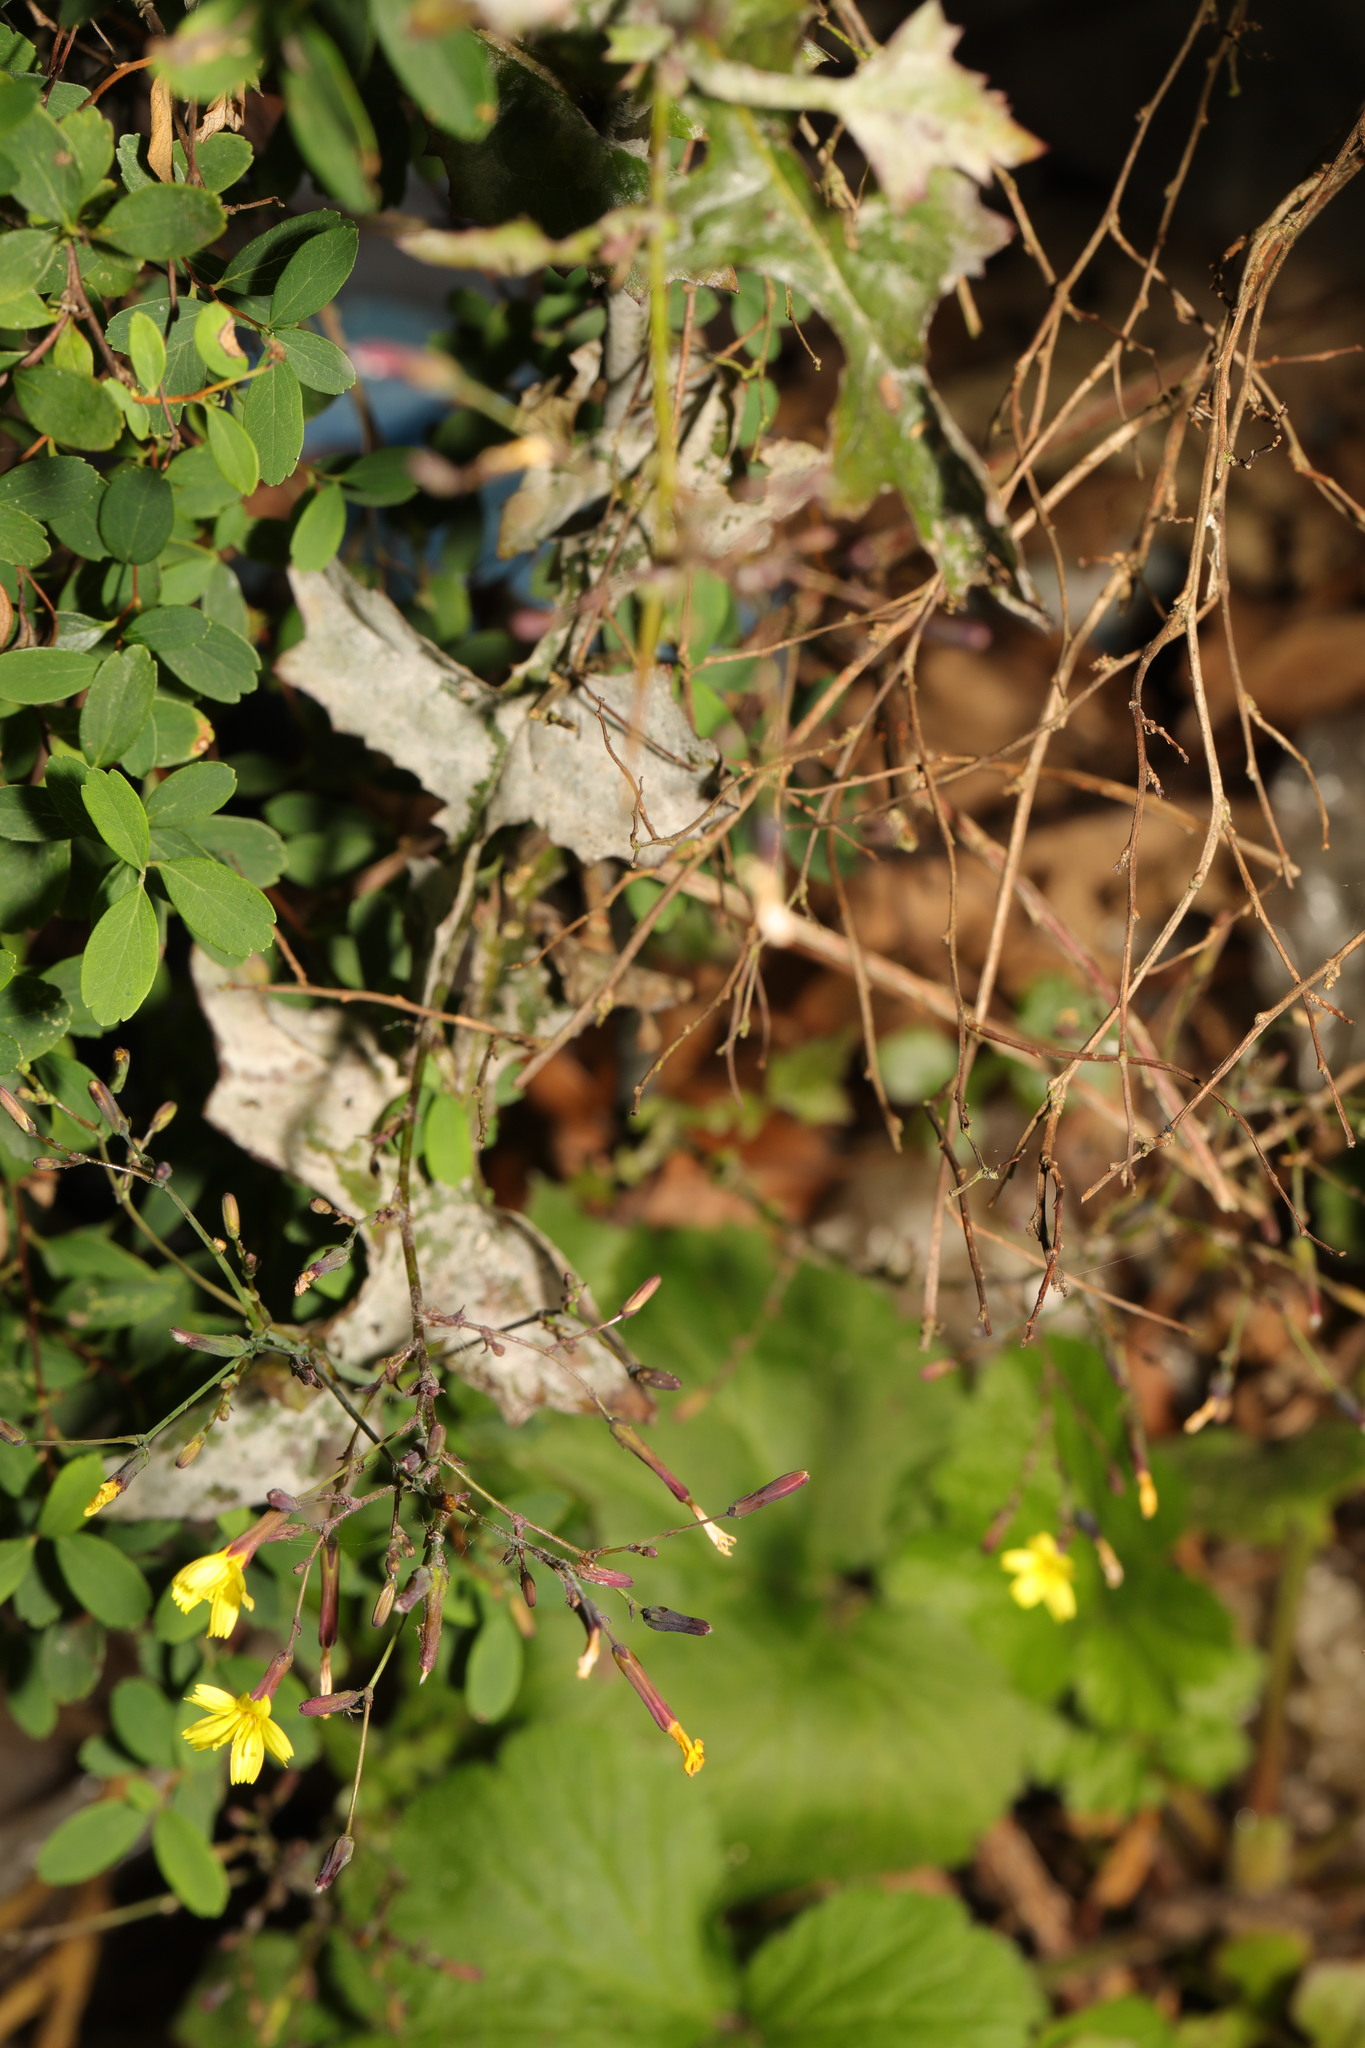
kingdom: Plantae
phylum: Tracheophyta
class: Magnoliopsida
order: Asterales
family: Asteraceae
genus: Mycelis
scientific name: Mycelis muralis
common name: Wall lettuce
